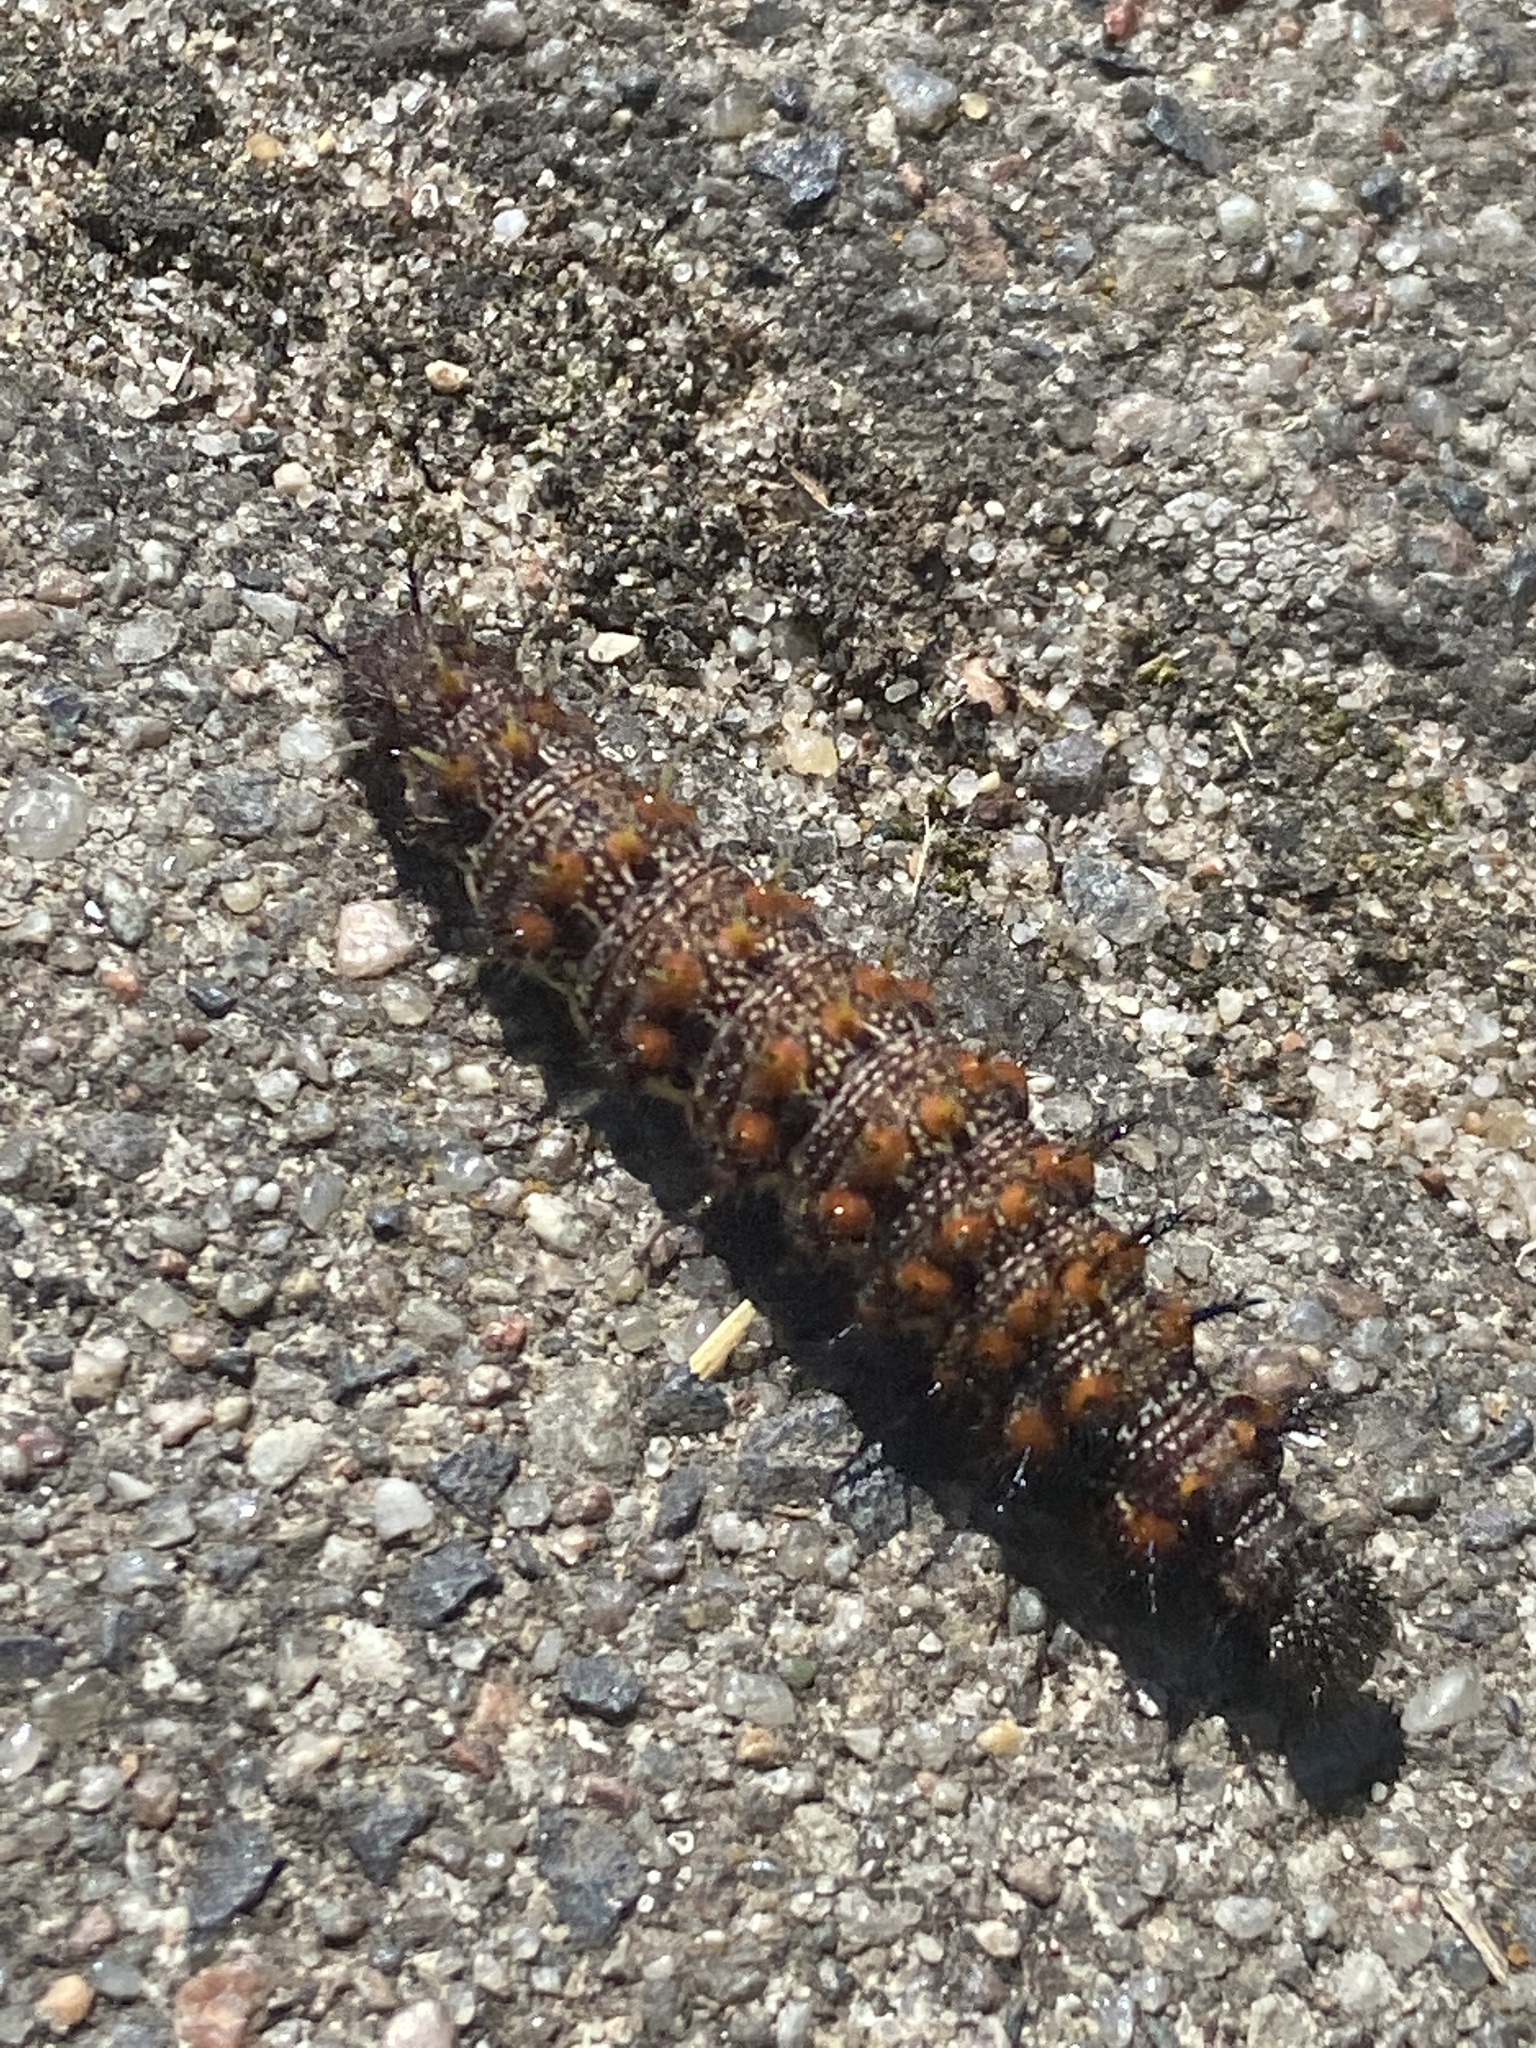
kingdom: Animalia
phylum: Arthropoda
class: Insecta
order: Lepidoptera
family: Nymphalidae
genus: Vanessa
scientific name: Vanessa atalanta
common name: Red admiral
